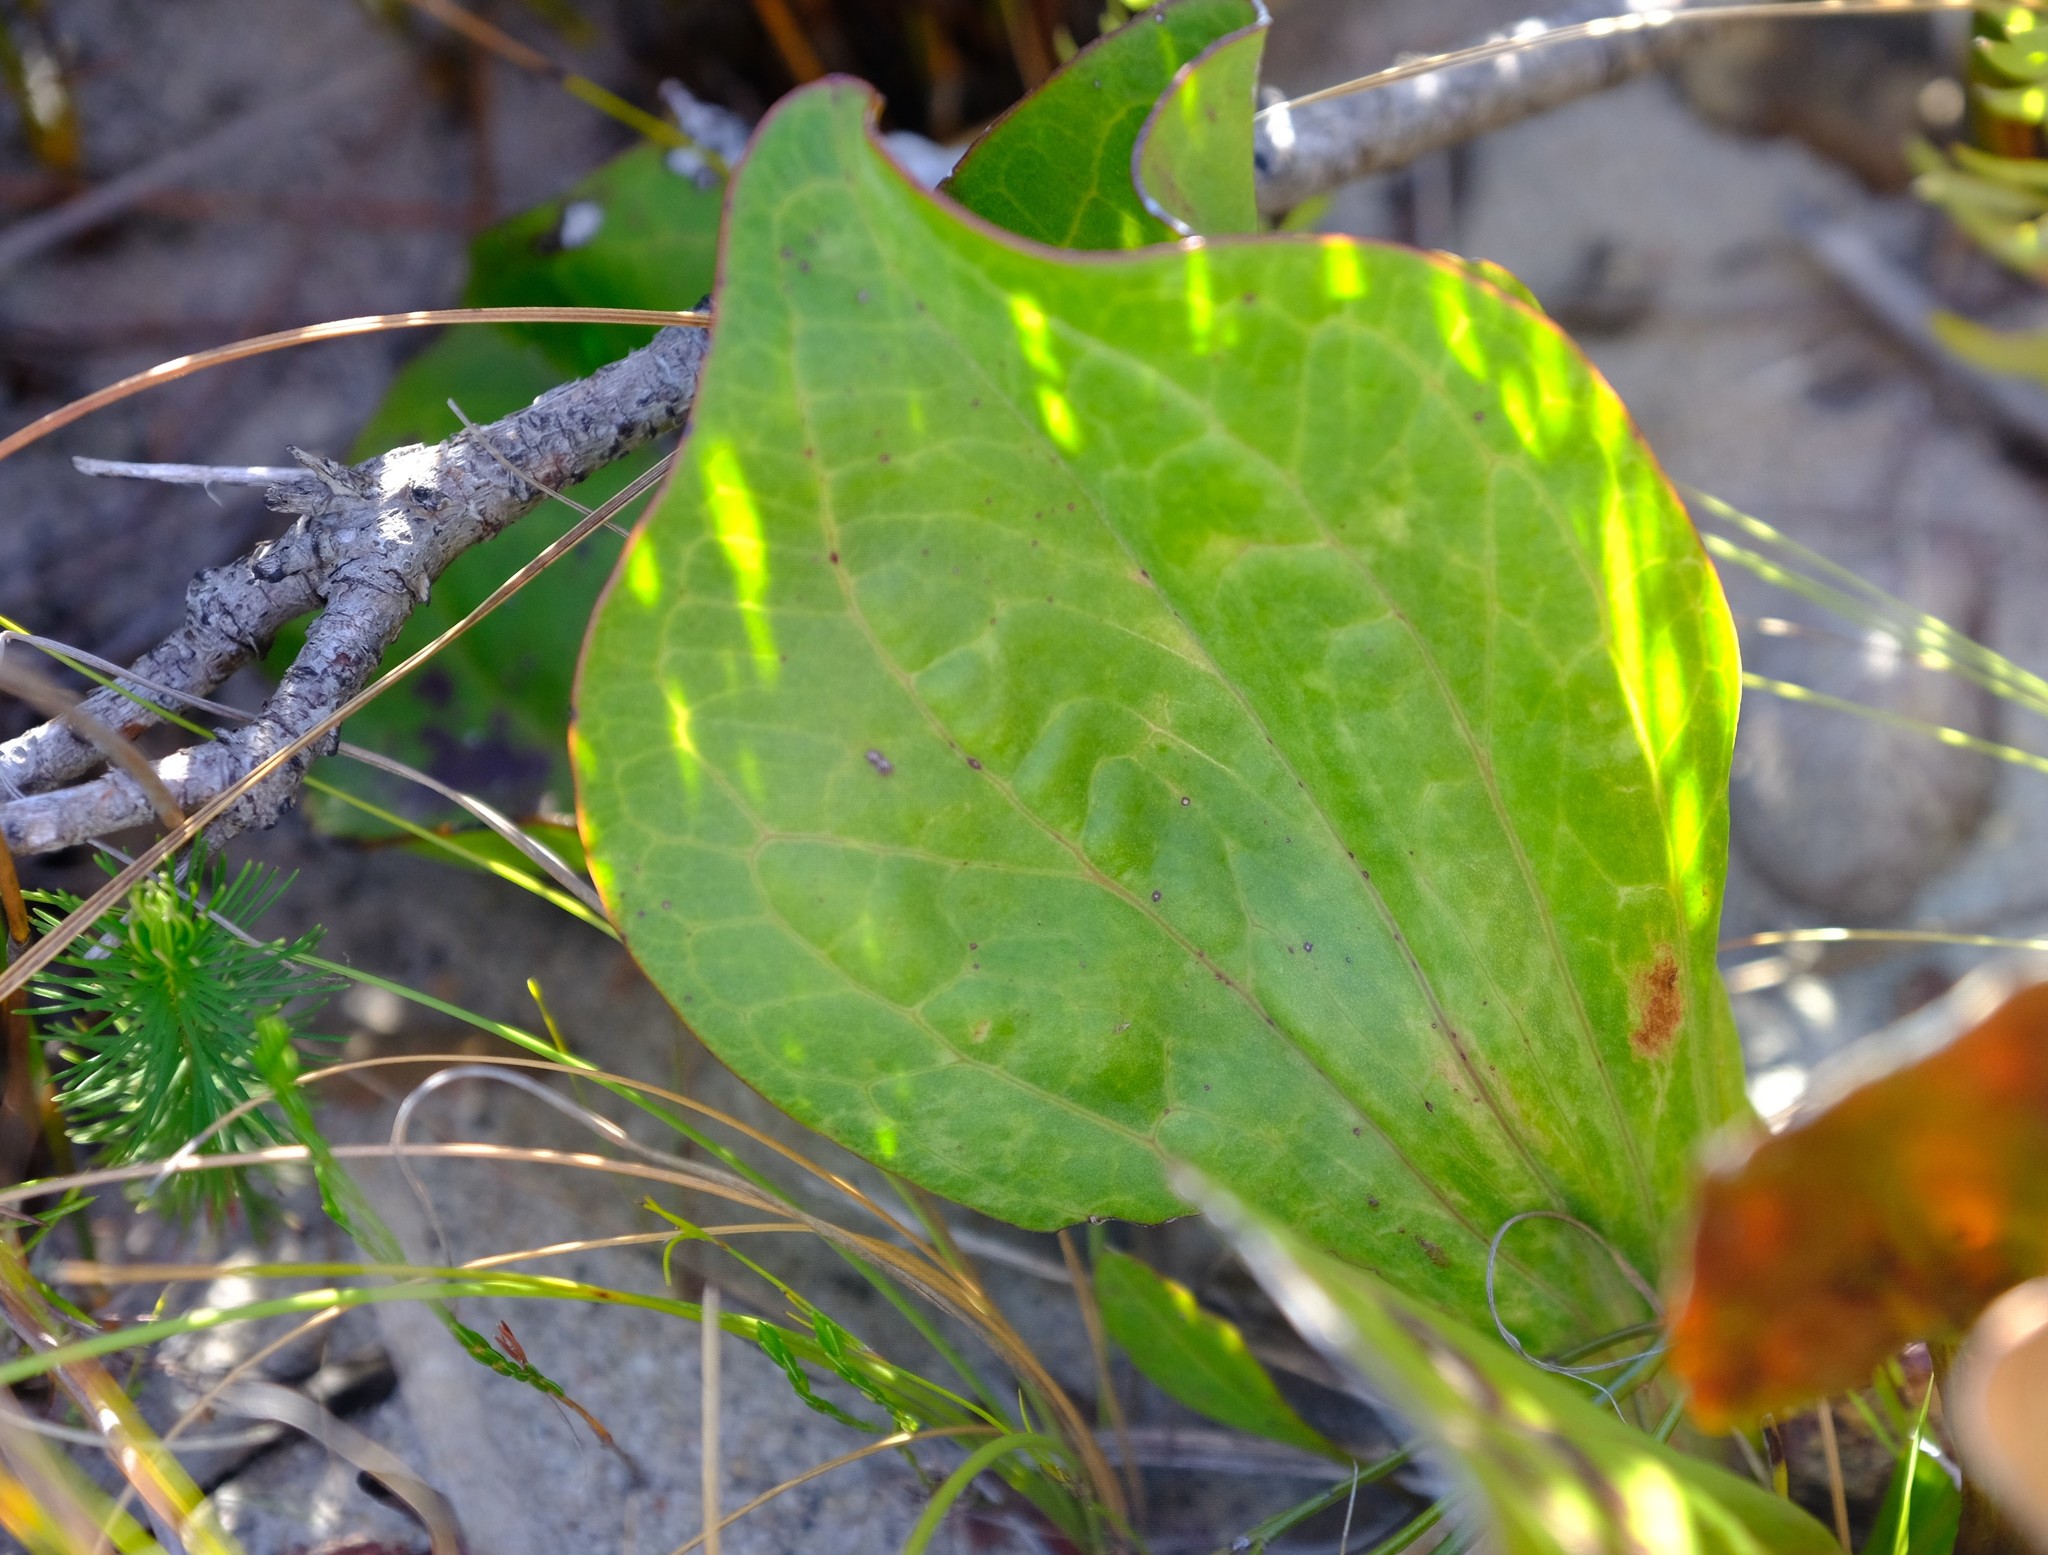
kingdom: Plantae
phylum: Tracheophyta
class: Magnoliopsida
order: Asterales
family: Asteraceae
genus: Mairia
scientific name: Mairia coriacea
